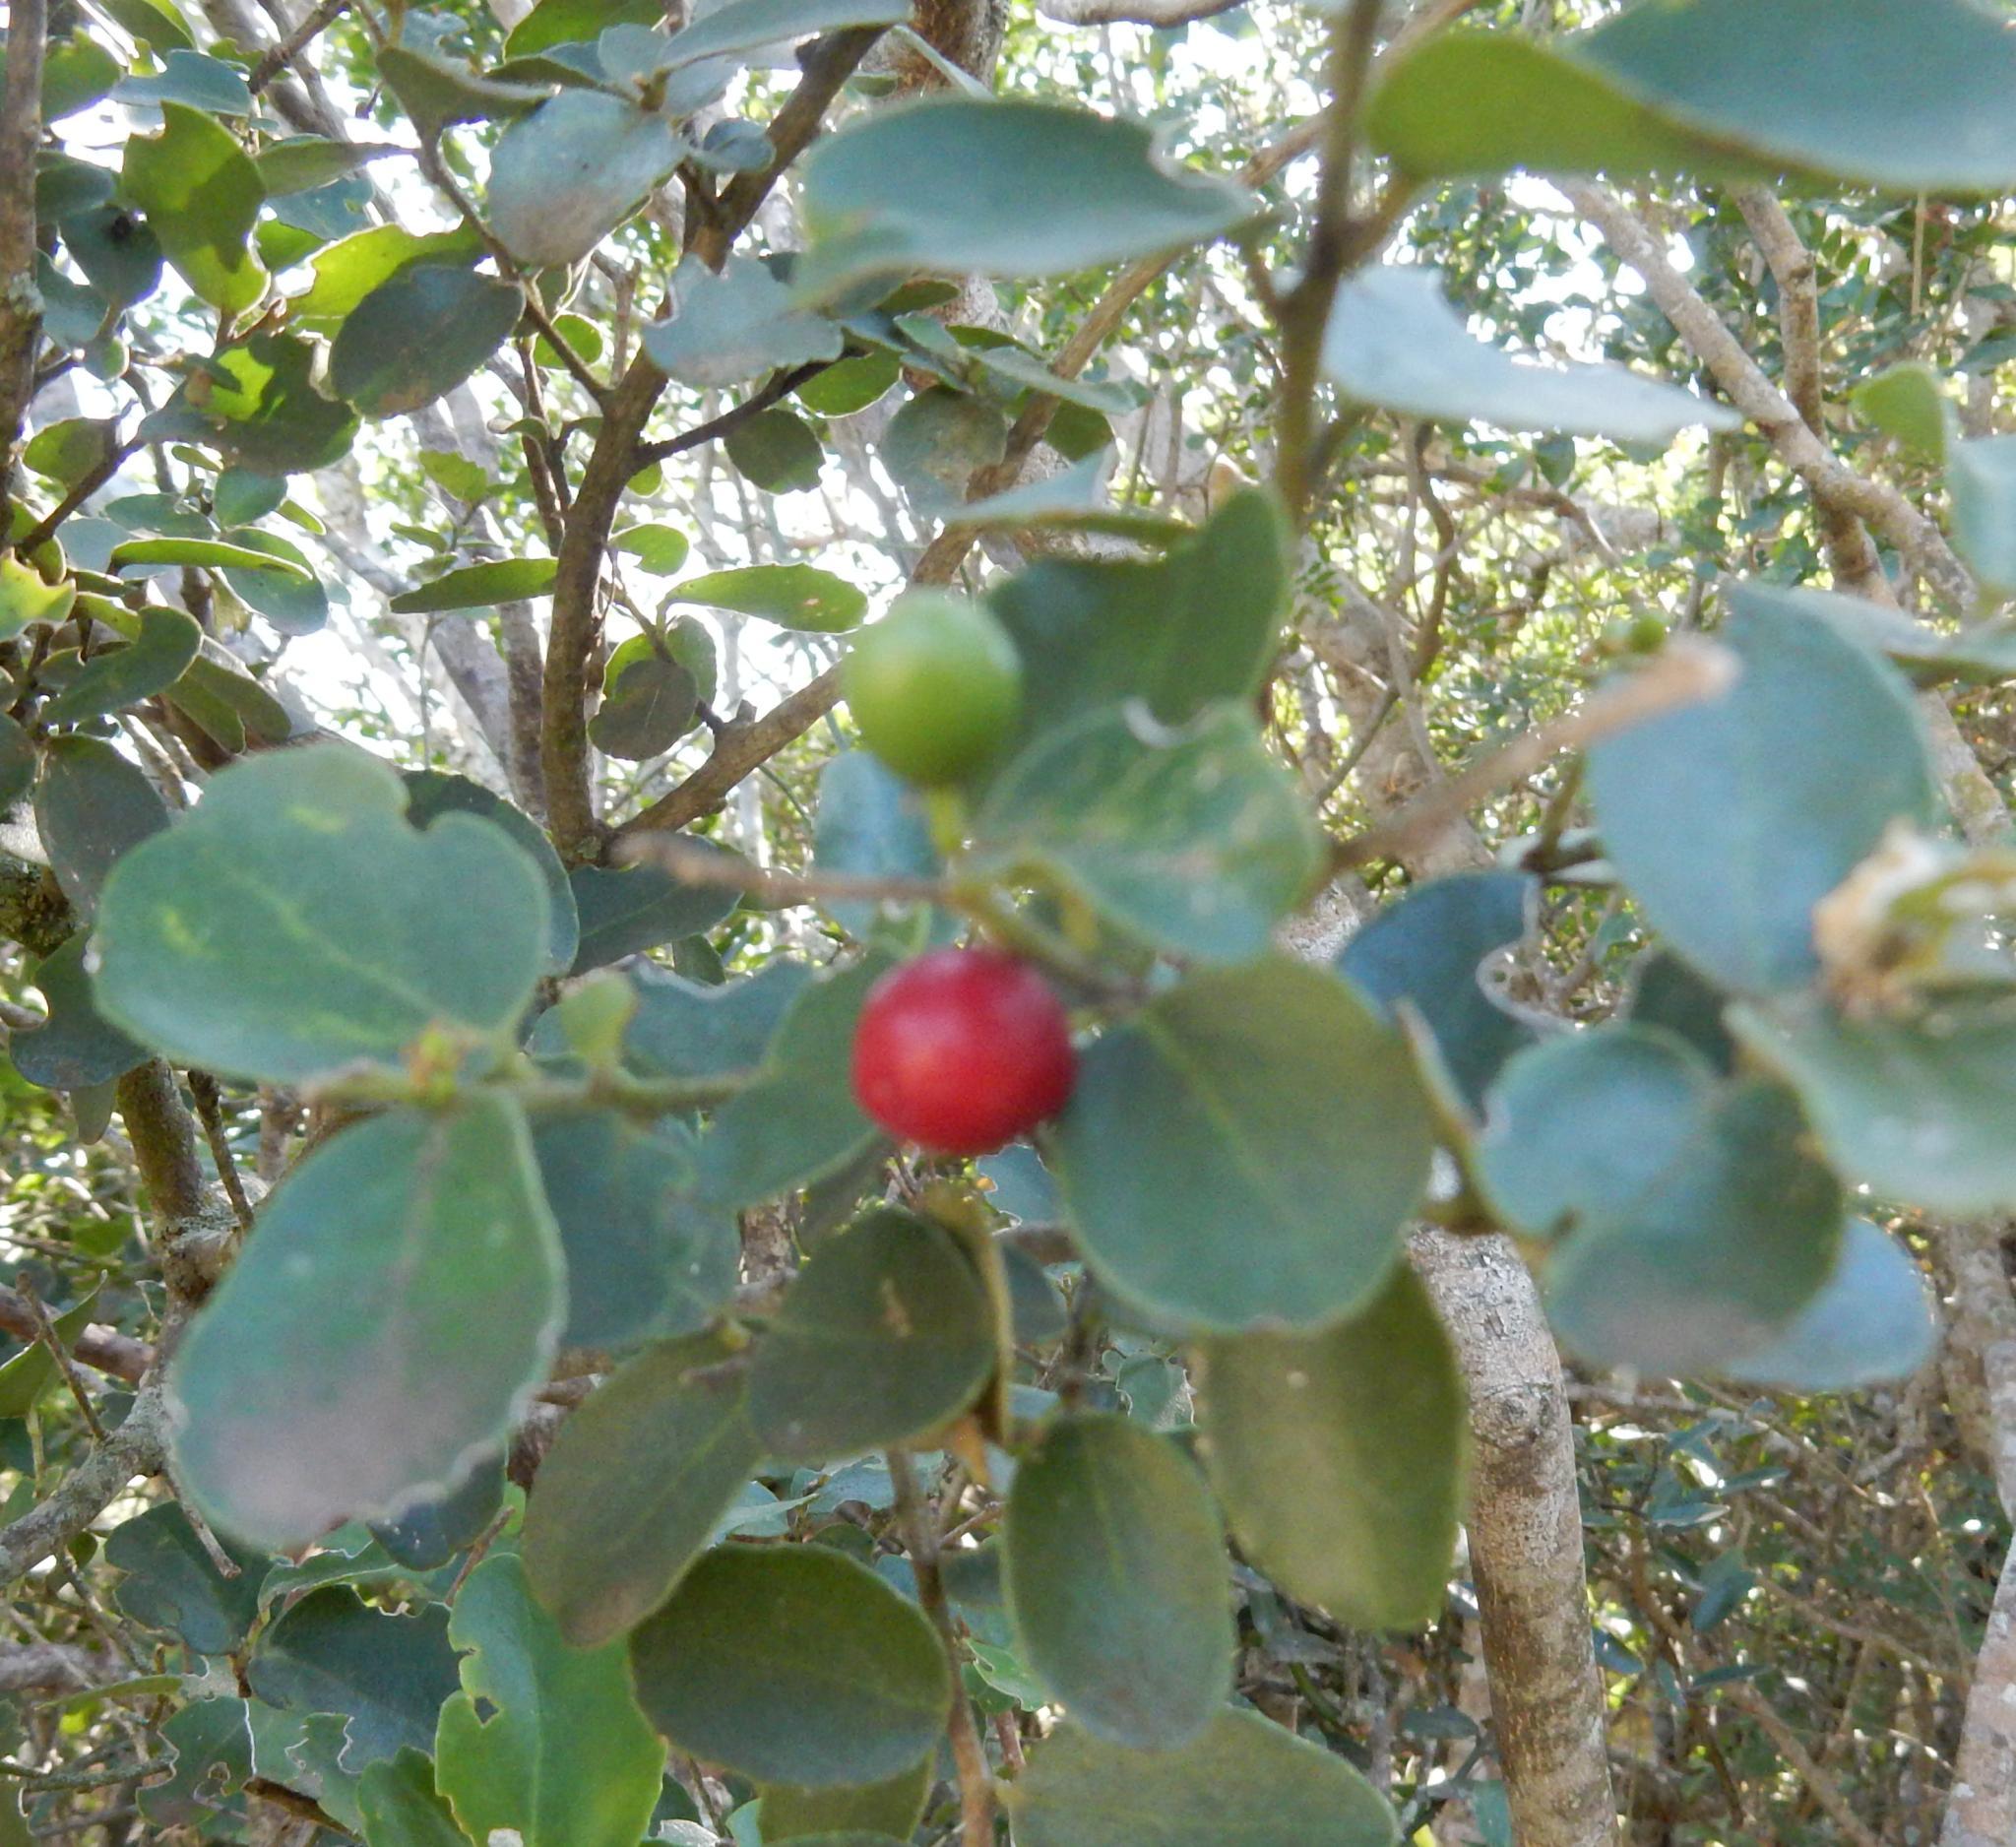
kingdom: Plantae
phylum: Tracheophyta
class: Magnoliopsida
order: Celastrales
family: Celastraceae
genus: Mystroxylon
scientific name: Mystroxylon aethiopicum
